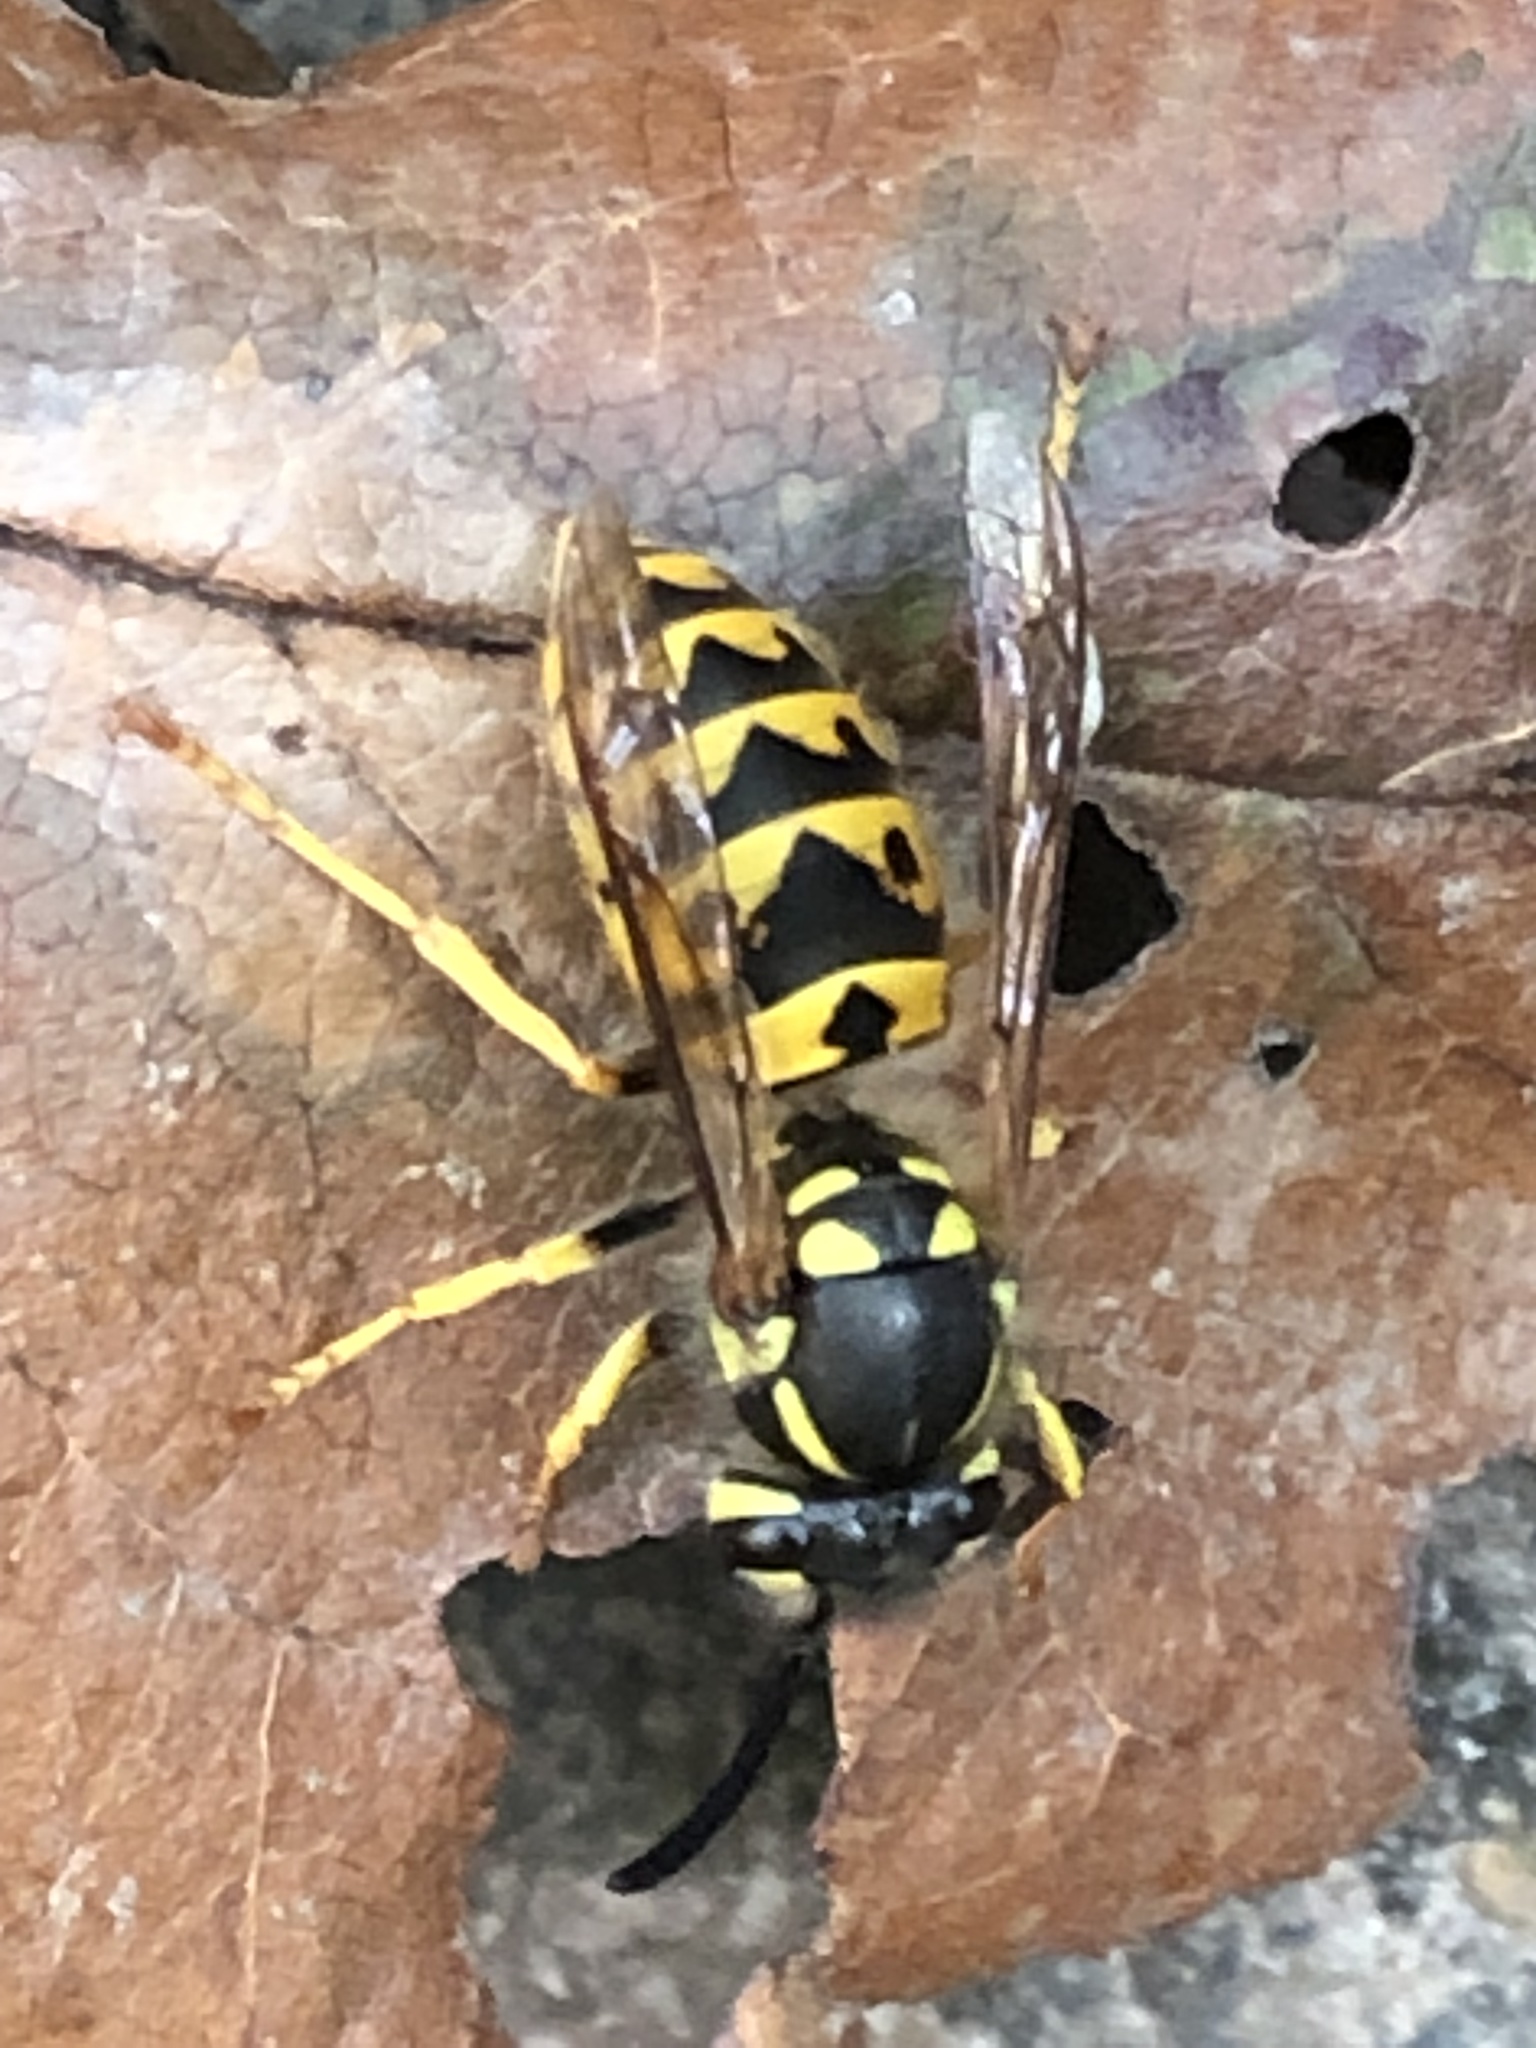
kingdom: Animalia
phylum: Arthropoda
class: Insecta
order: Hymenoptera
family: Vespidae
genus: Vespula
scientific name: Vespula germanica
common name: German wasp
